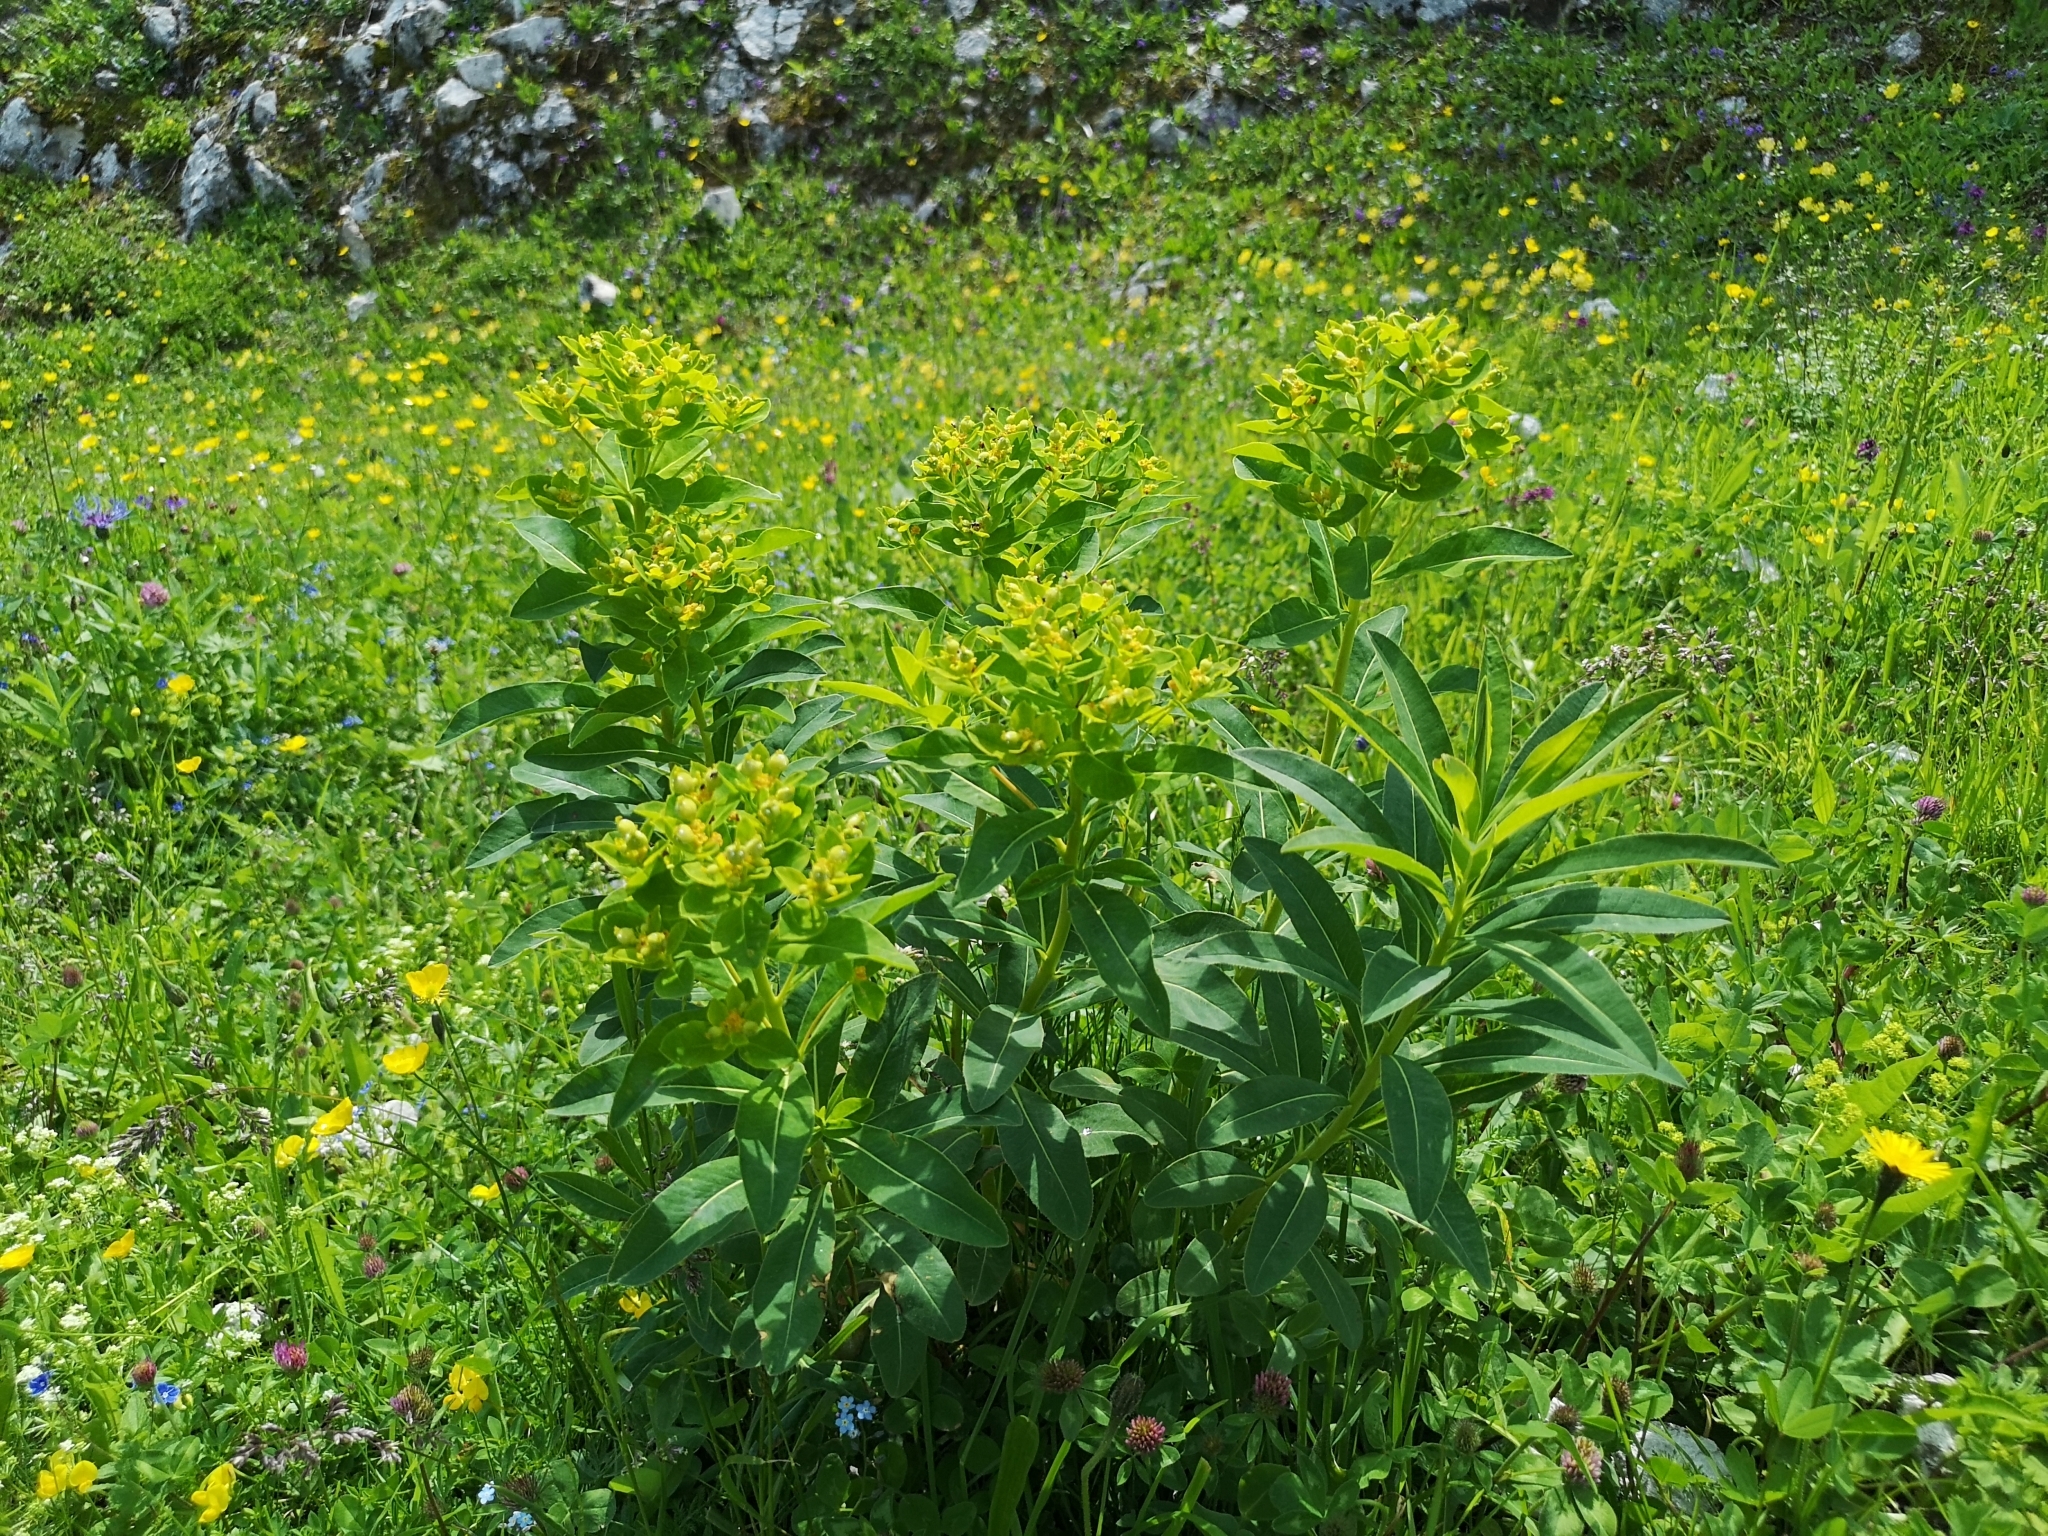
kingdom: Plantae
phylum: Tracheophyta
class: Magnoliopsida
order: Malpighiales
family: Euphorbiaceae
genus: Euphorbia
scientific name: Euphorbia austriaca
